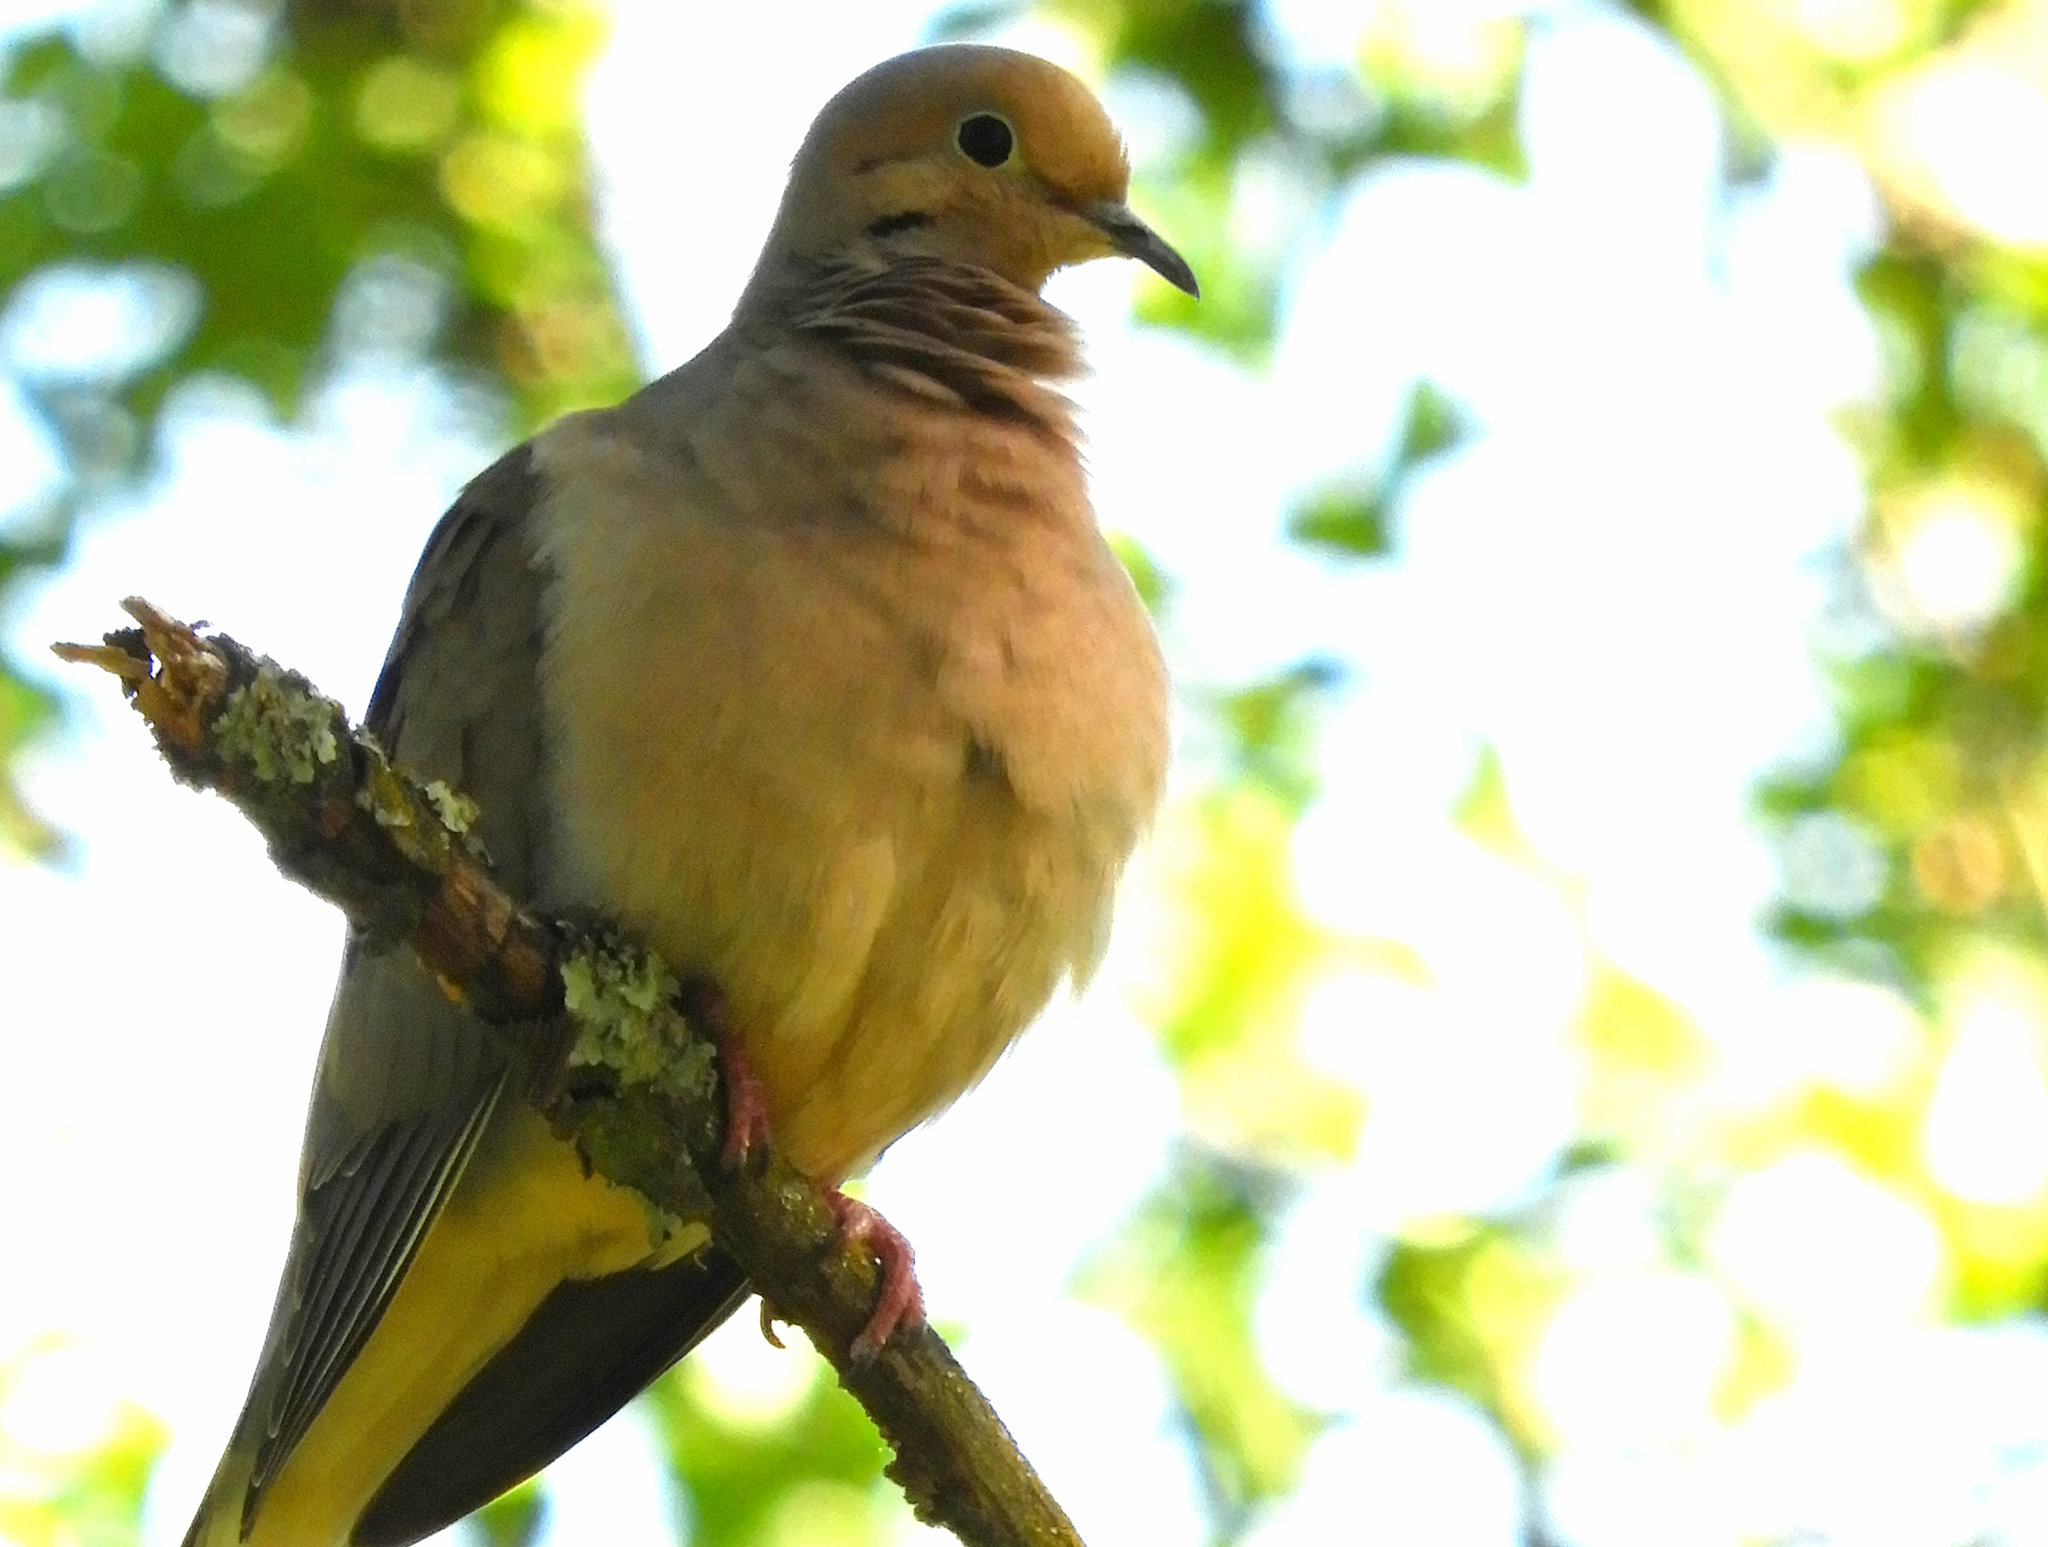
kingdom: Animalia
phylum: Chordata
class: Aves
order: Columbiformes
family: Columbidae
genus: Zenaida
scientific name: Zenaida macroura
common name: Mourning dove
